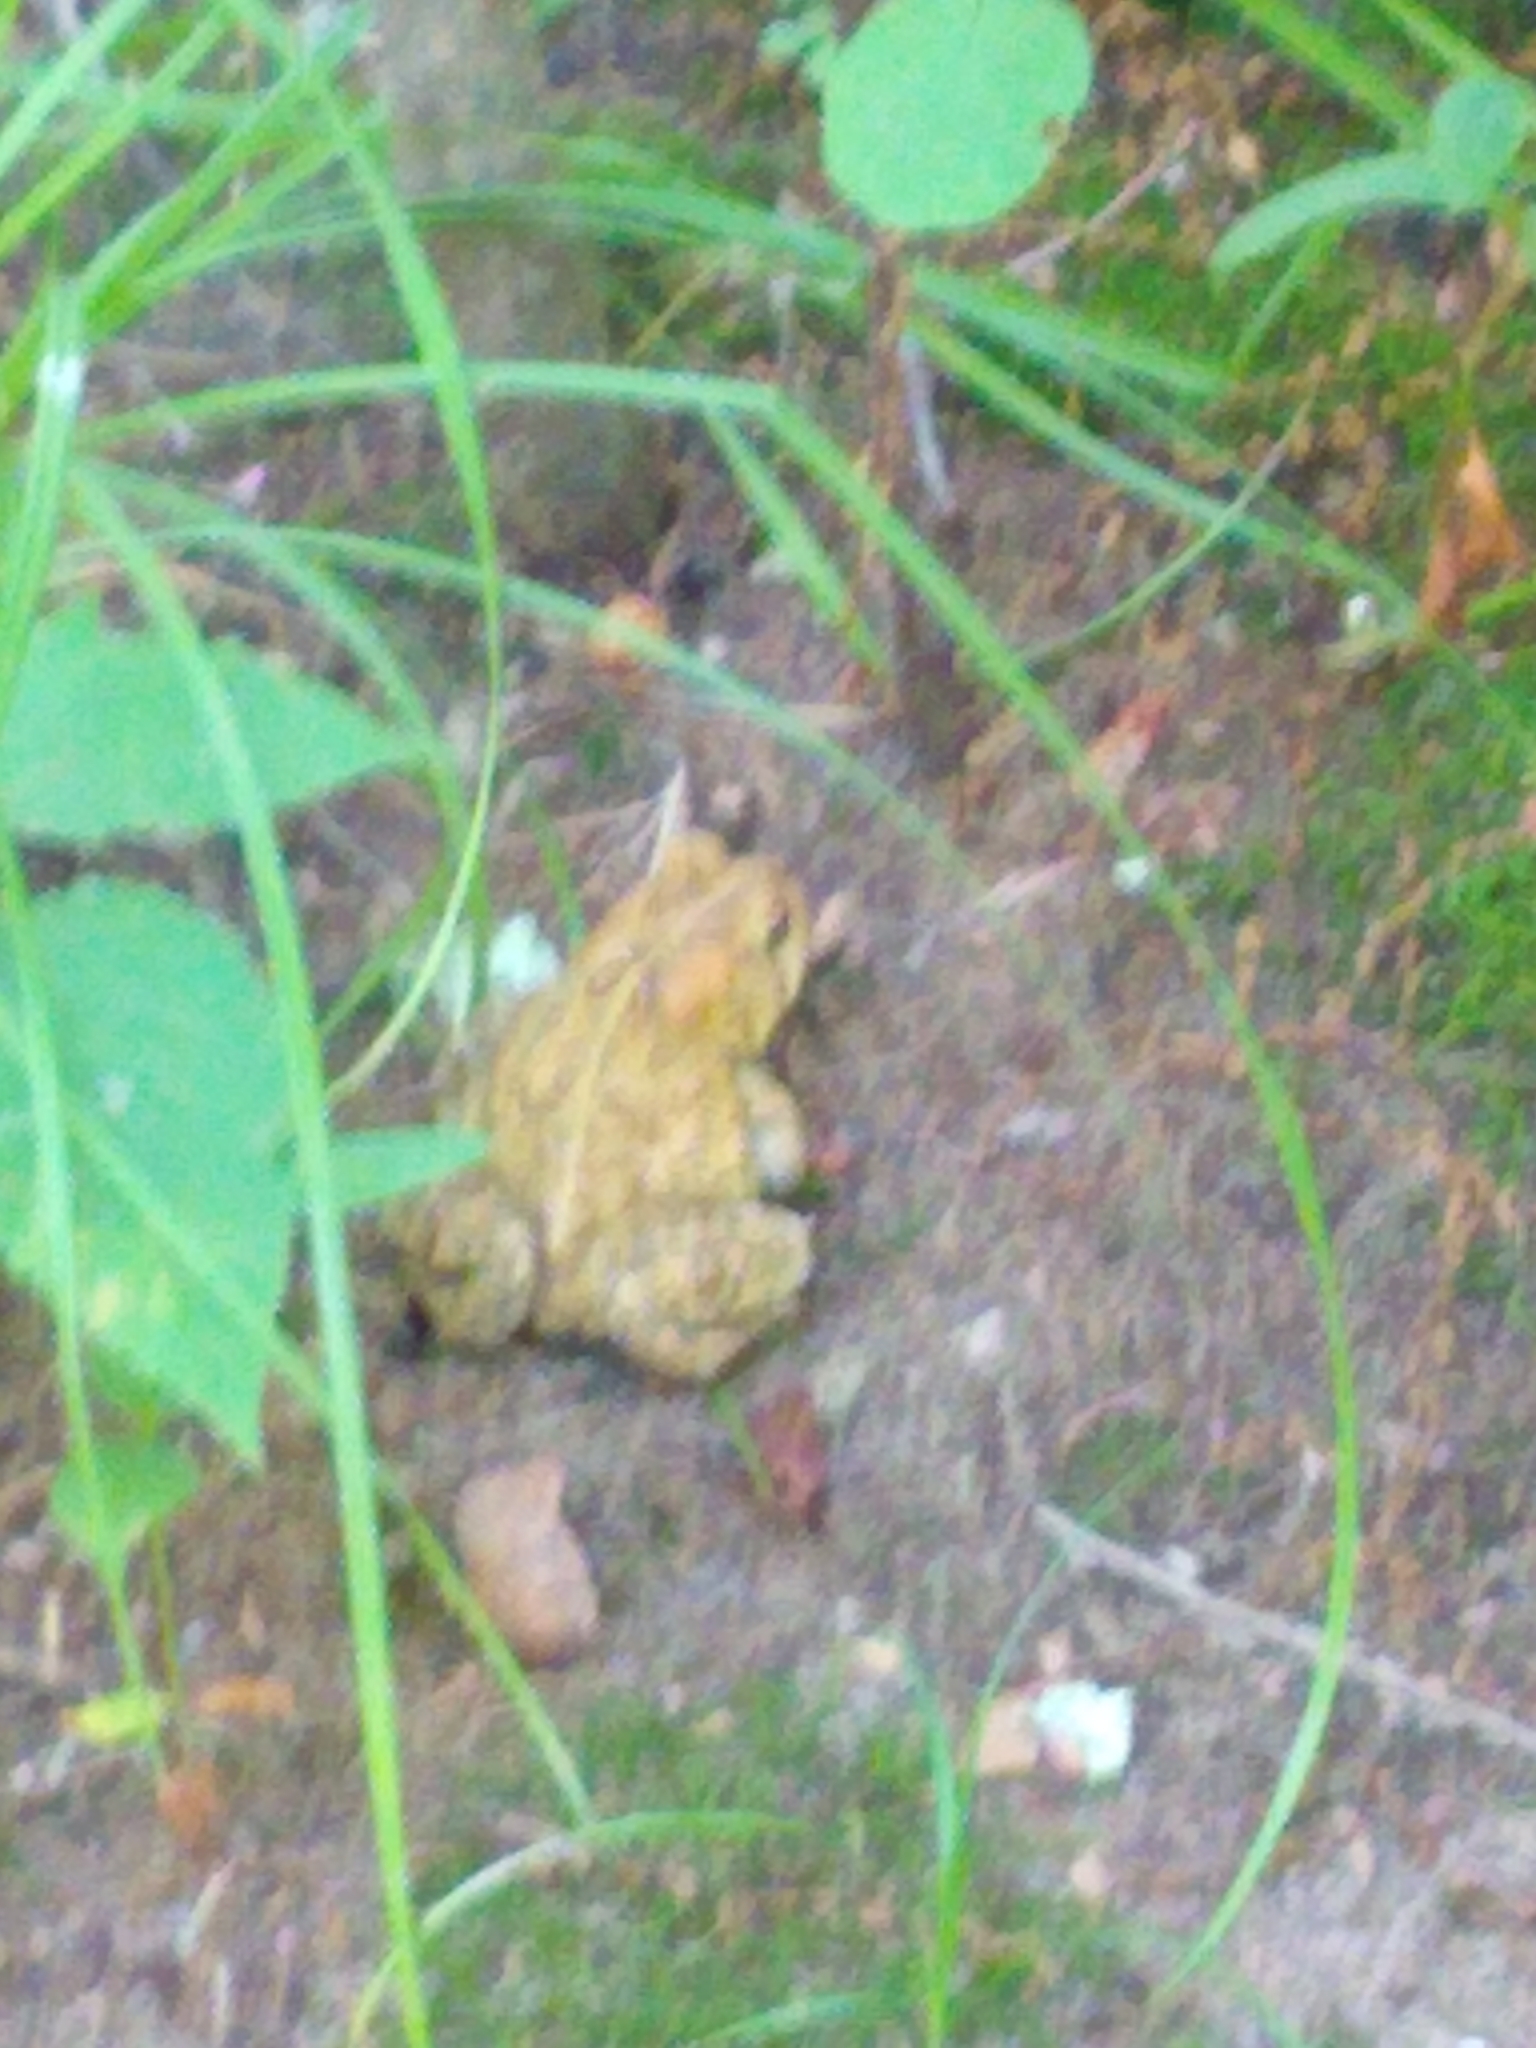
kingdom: Animalia
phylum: Chordata
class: Amphibia
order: Anura
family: Bufonidae
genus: Anaxyrus
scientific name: Anaxyrus americanus
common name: American toad
